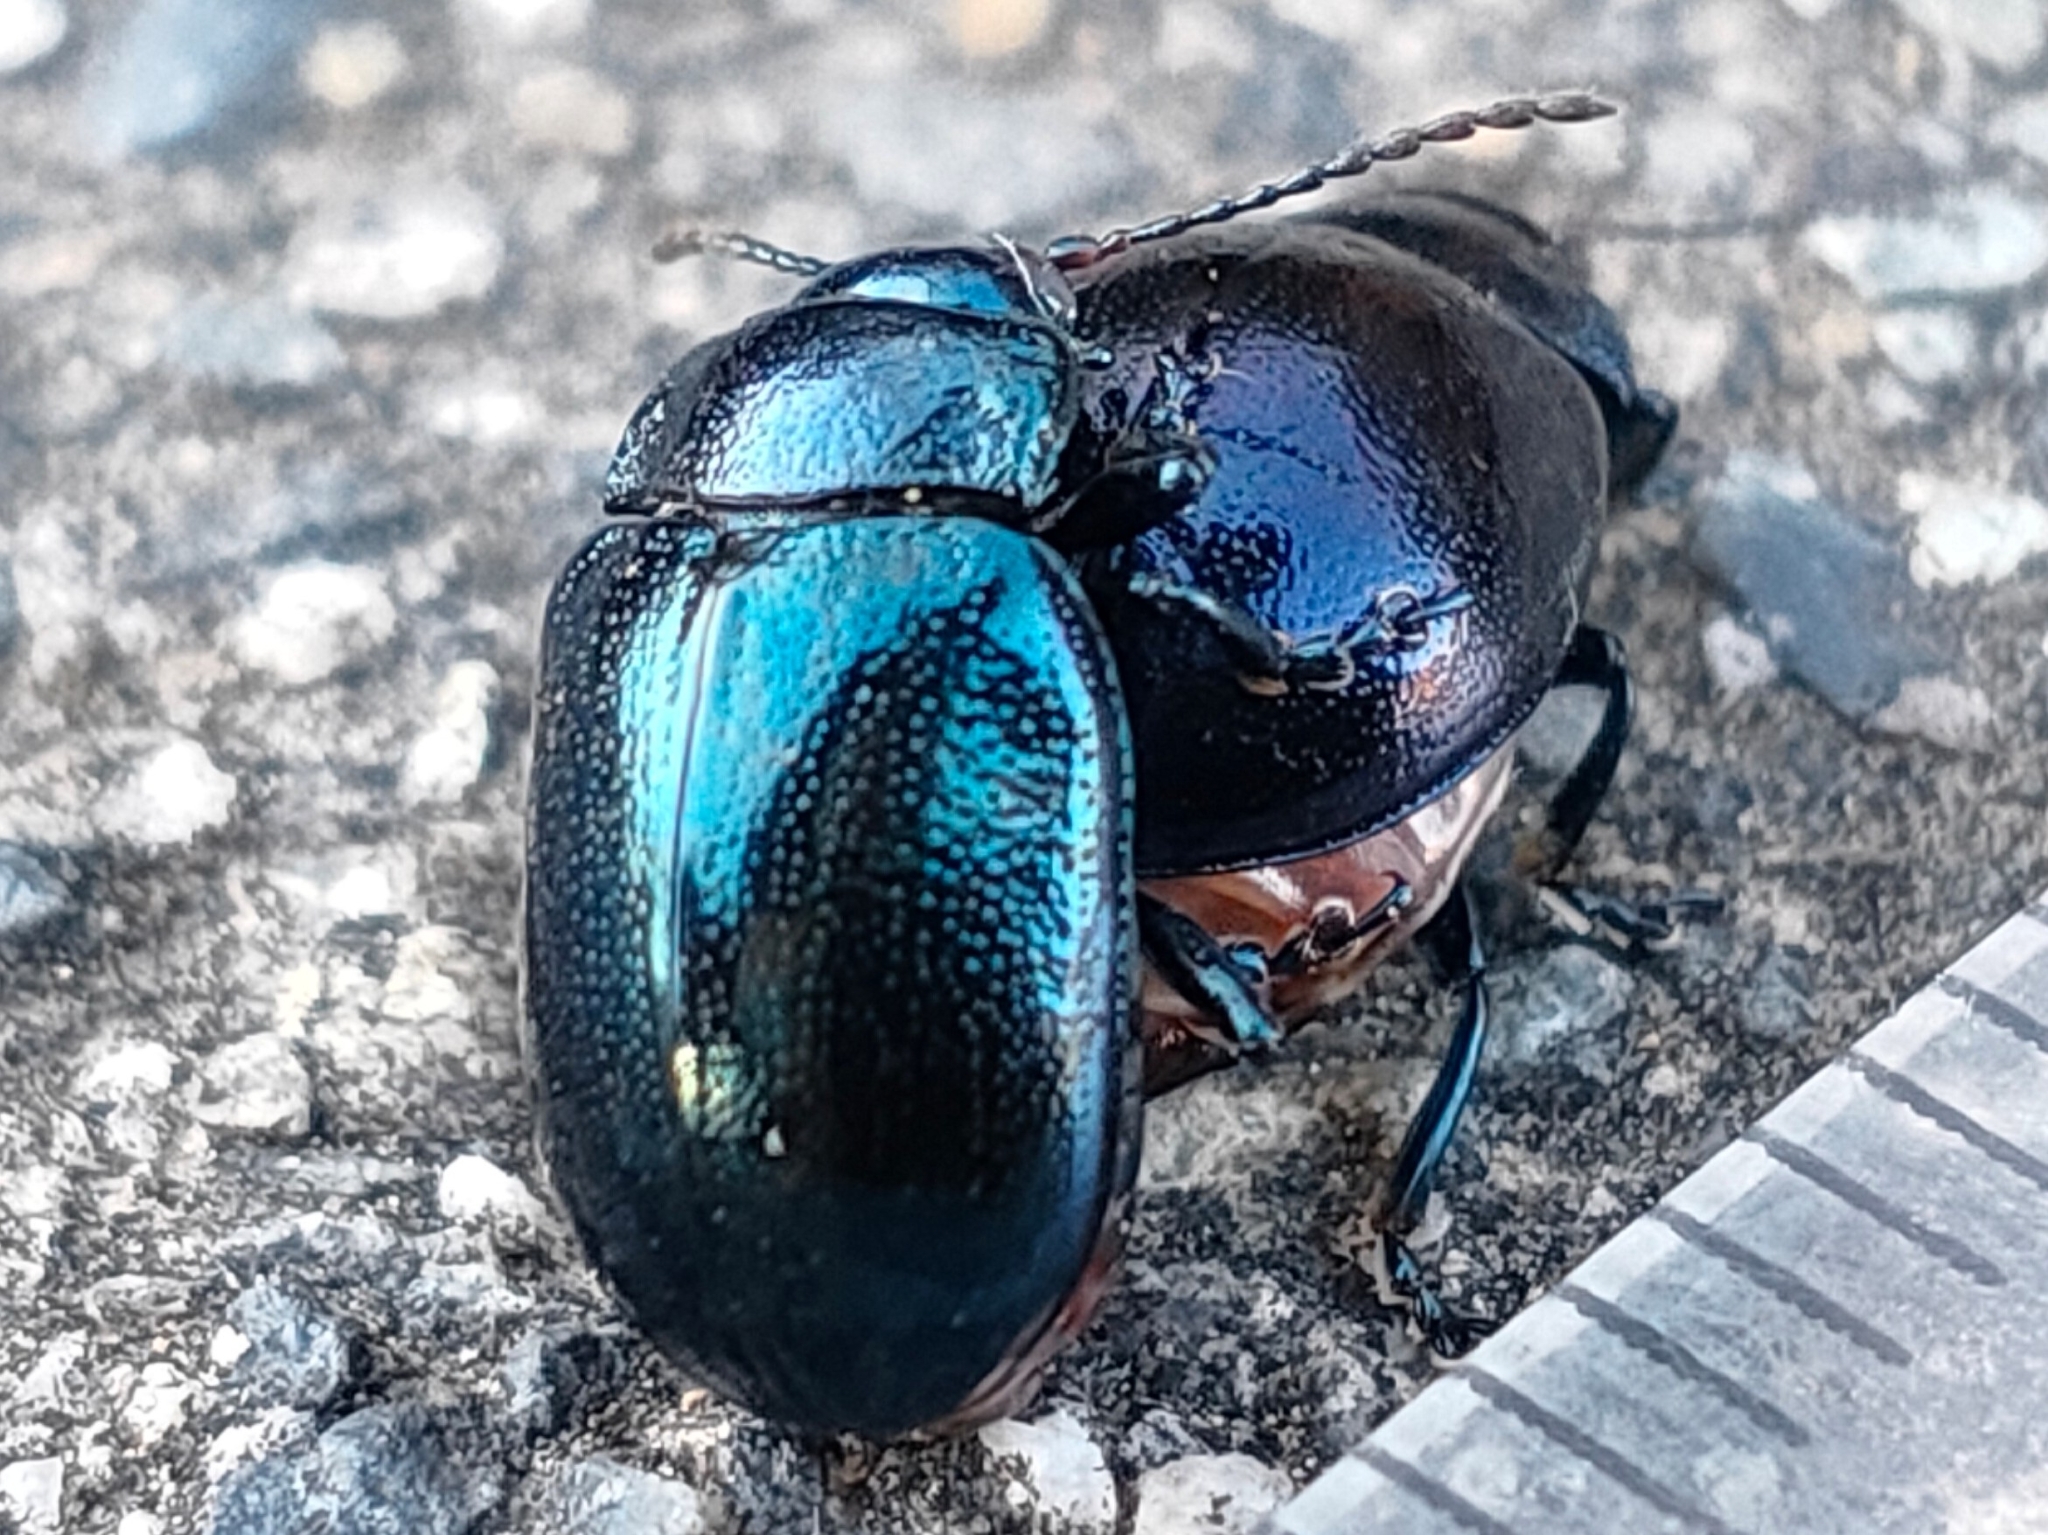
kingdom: Animalia
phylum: Arthropoda
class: Insecta
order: Coleoptera
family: Chrysomelidae
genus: Chrysolina
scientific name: Chrysolina aurichalcea
